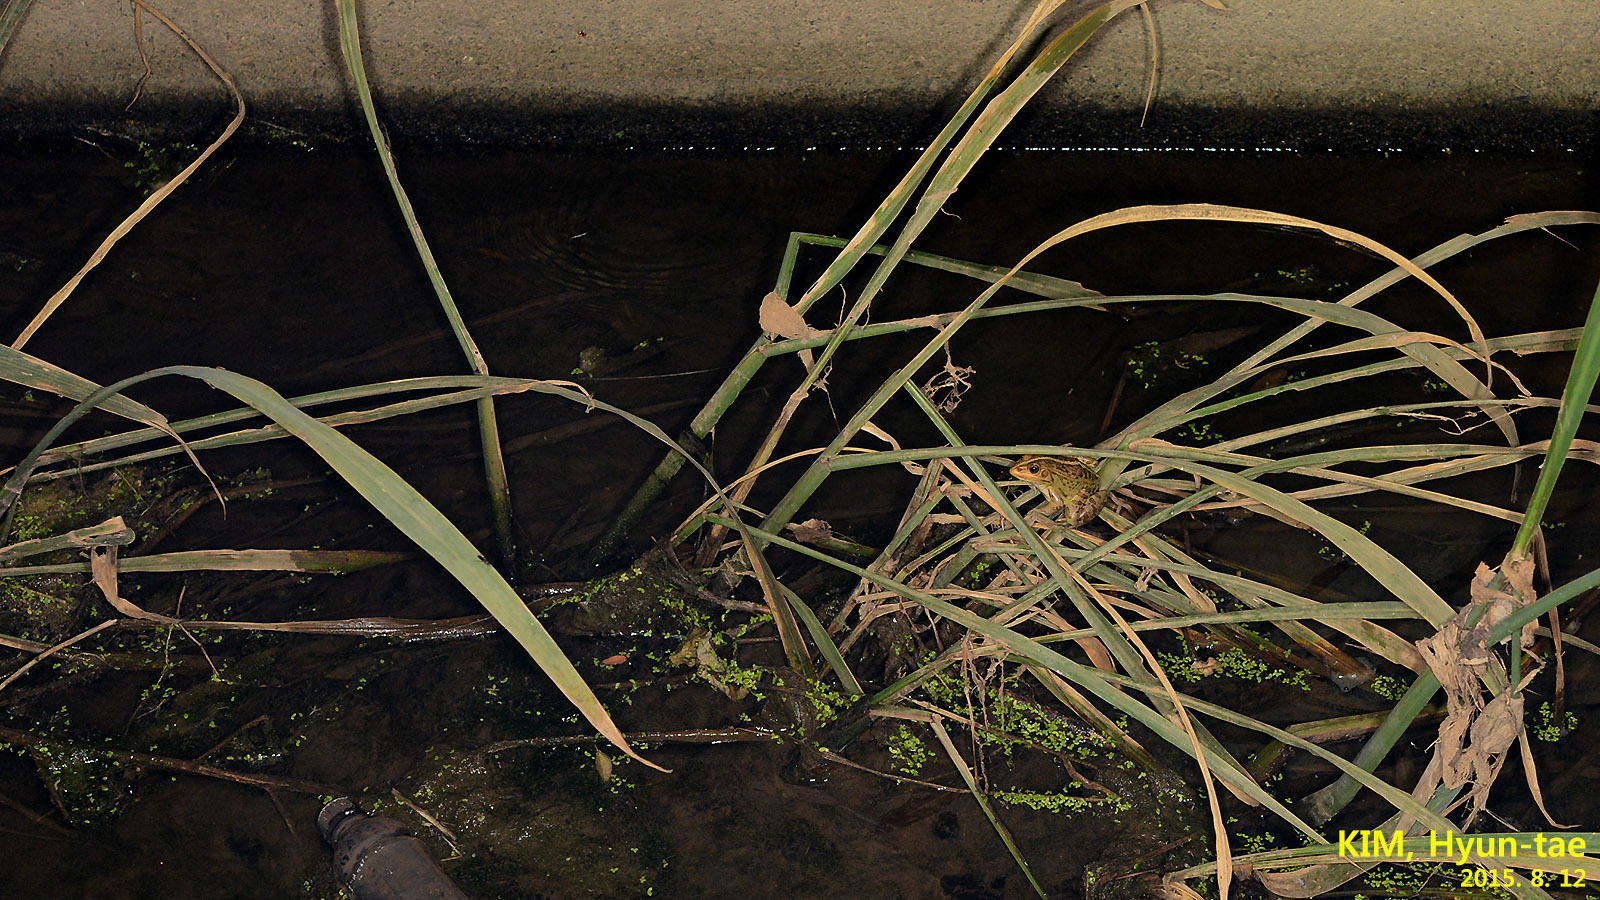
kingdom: Animalia
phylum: Chordata
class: Amphibia
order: Anura
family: Ranidae
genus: Pelophylax
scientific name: Pelophylax nigromaculatus
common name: Black-spotted pond frog
